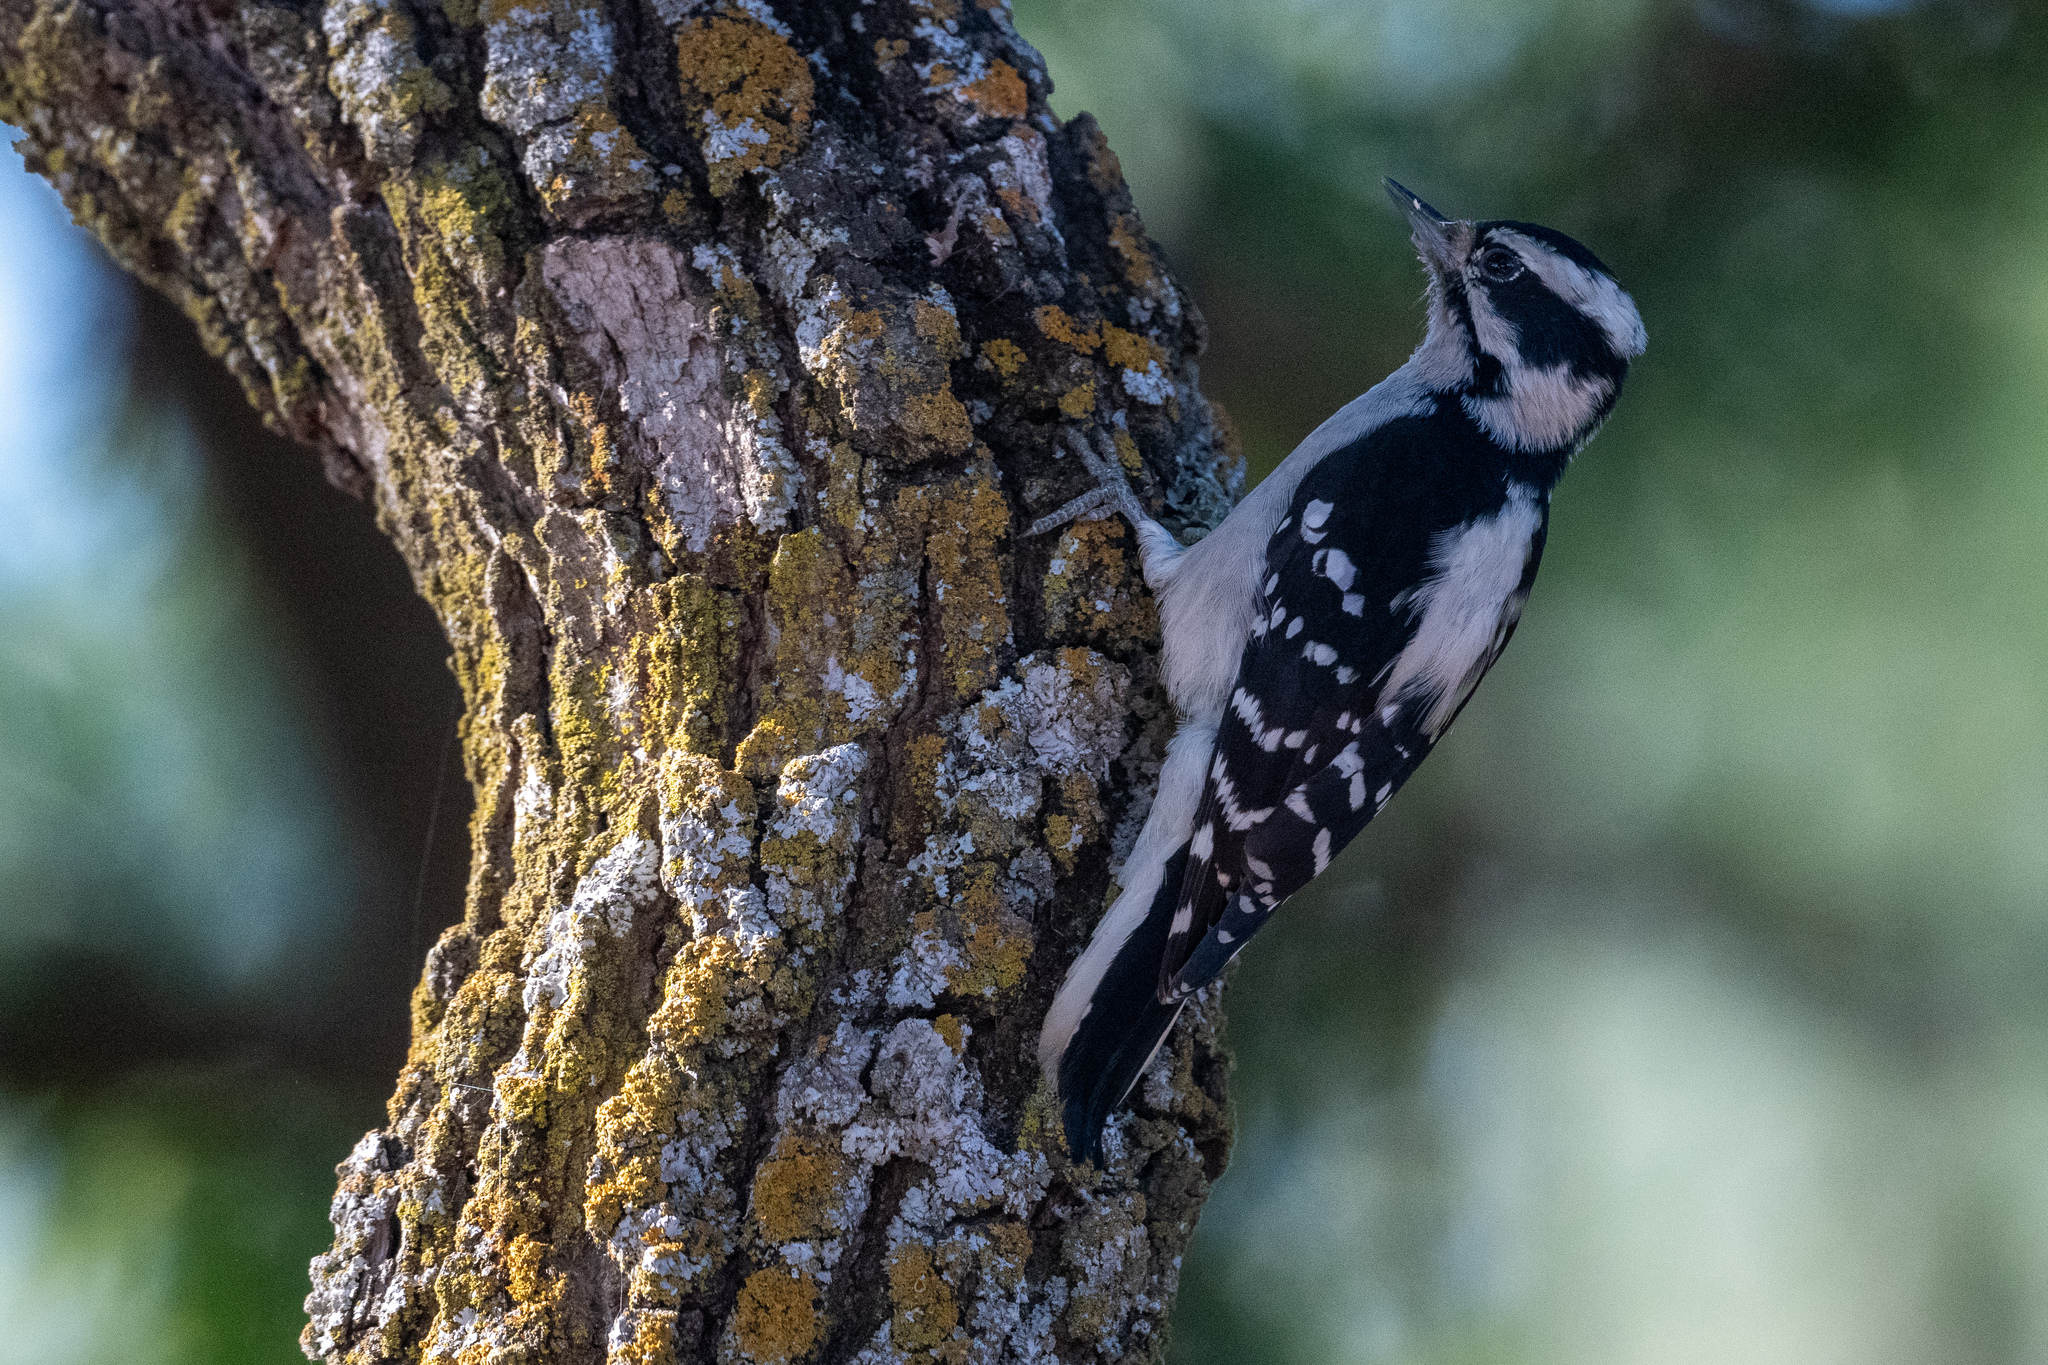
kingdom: Animalia
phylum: Chordata
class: Aves
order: Piciformes
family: Picidae
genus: Dryobates
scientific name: Dryobates pubescens
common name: Downy woodpecker
